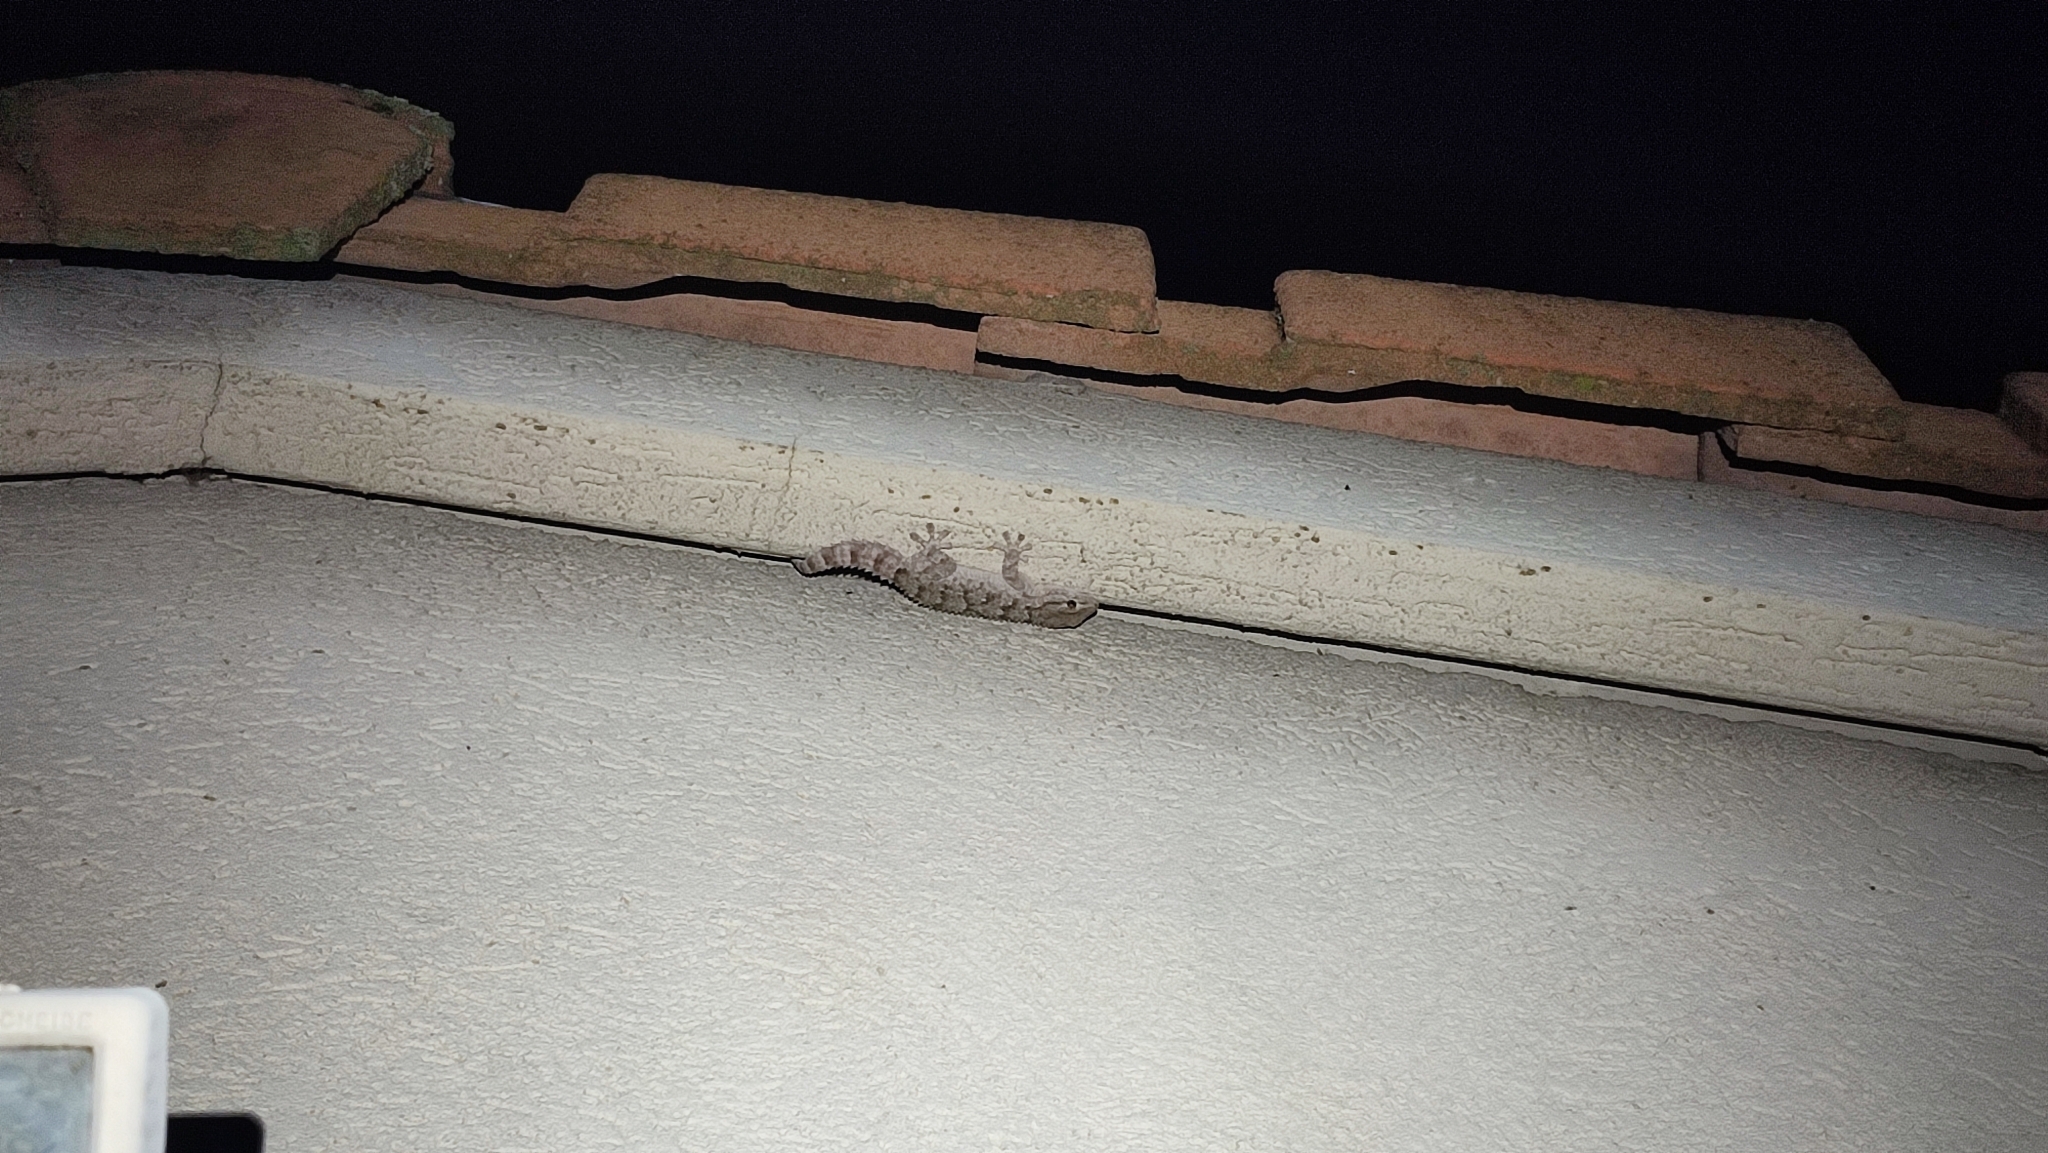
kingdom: Animalia
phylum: Chordata
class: Squamata
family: Phyllodactylidae
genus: Tarentola
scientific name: Tarentola mauritanica
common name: Moorish gecko
